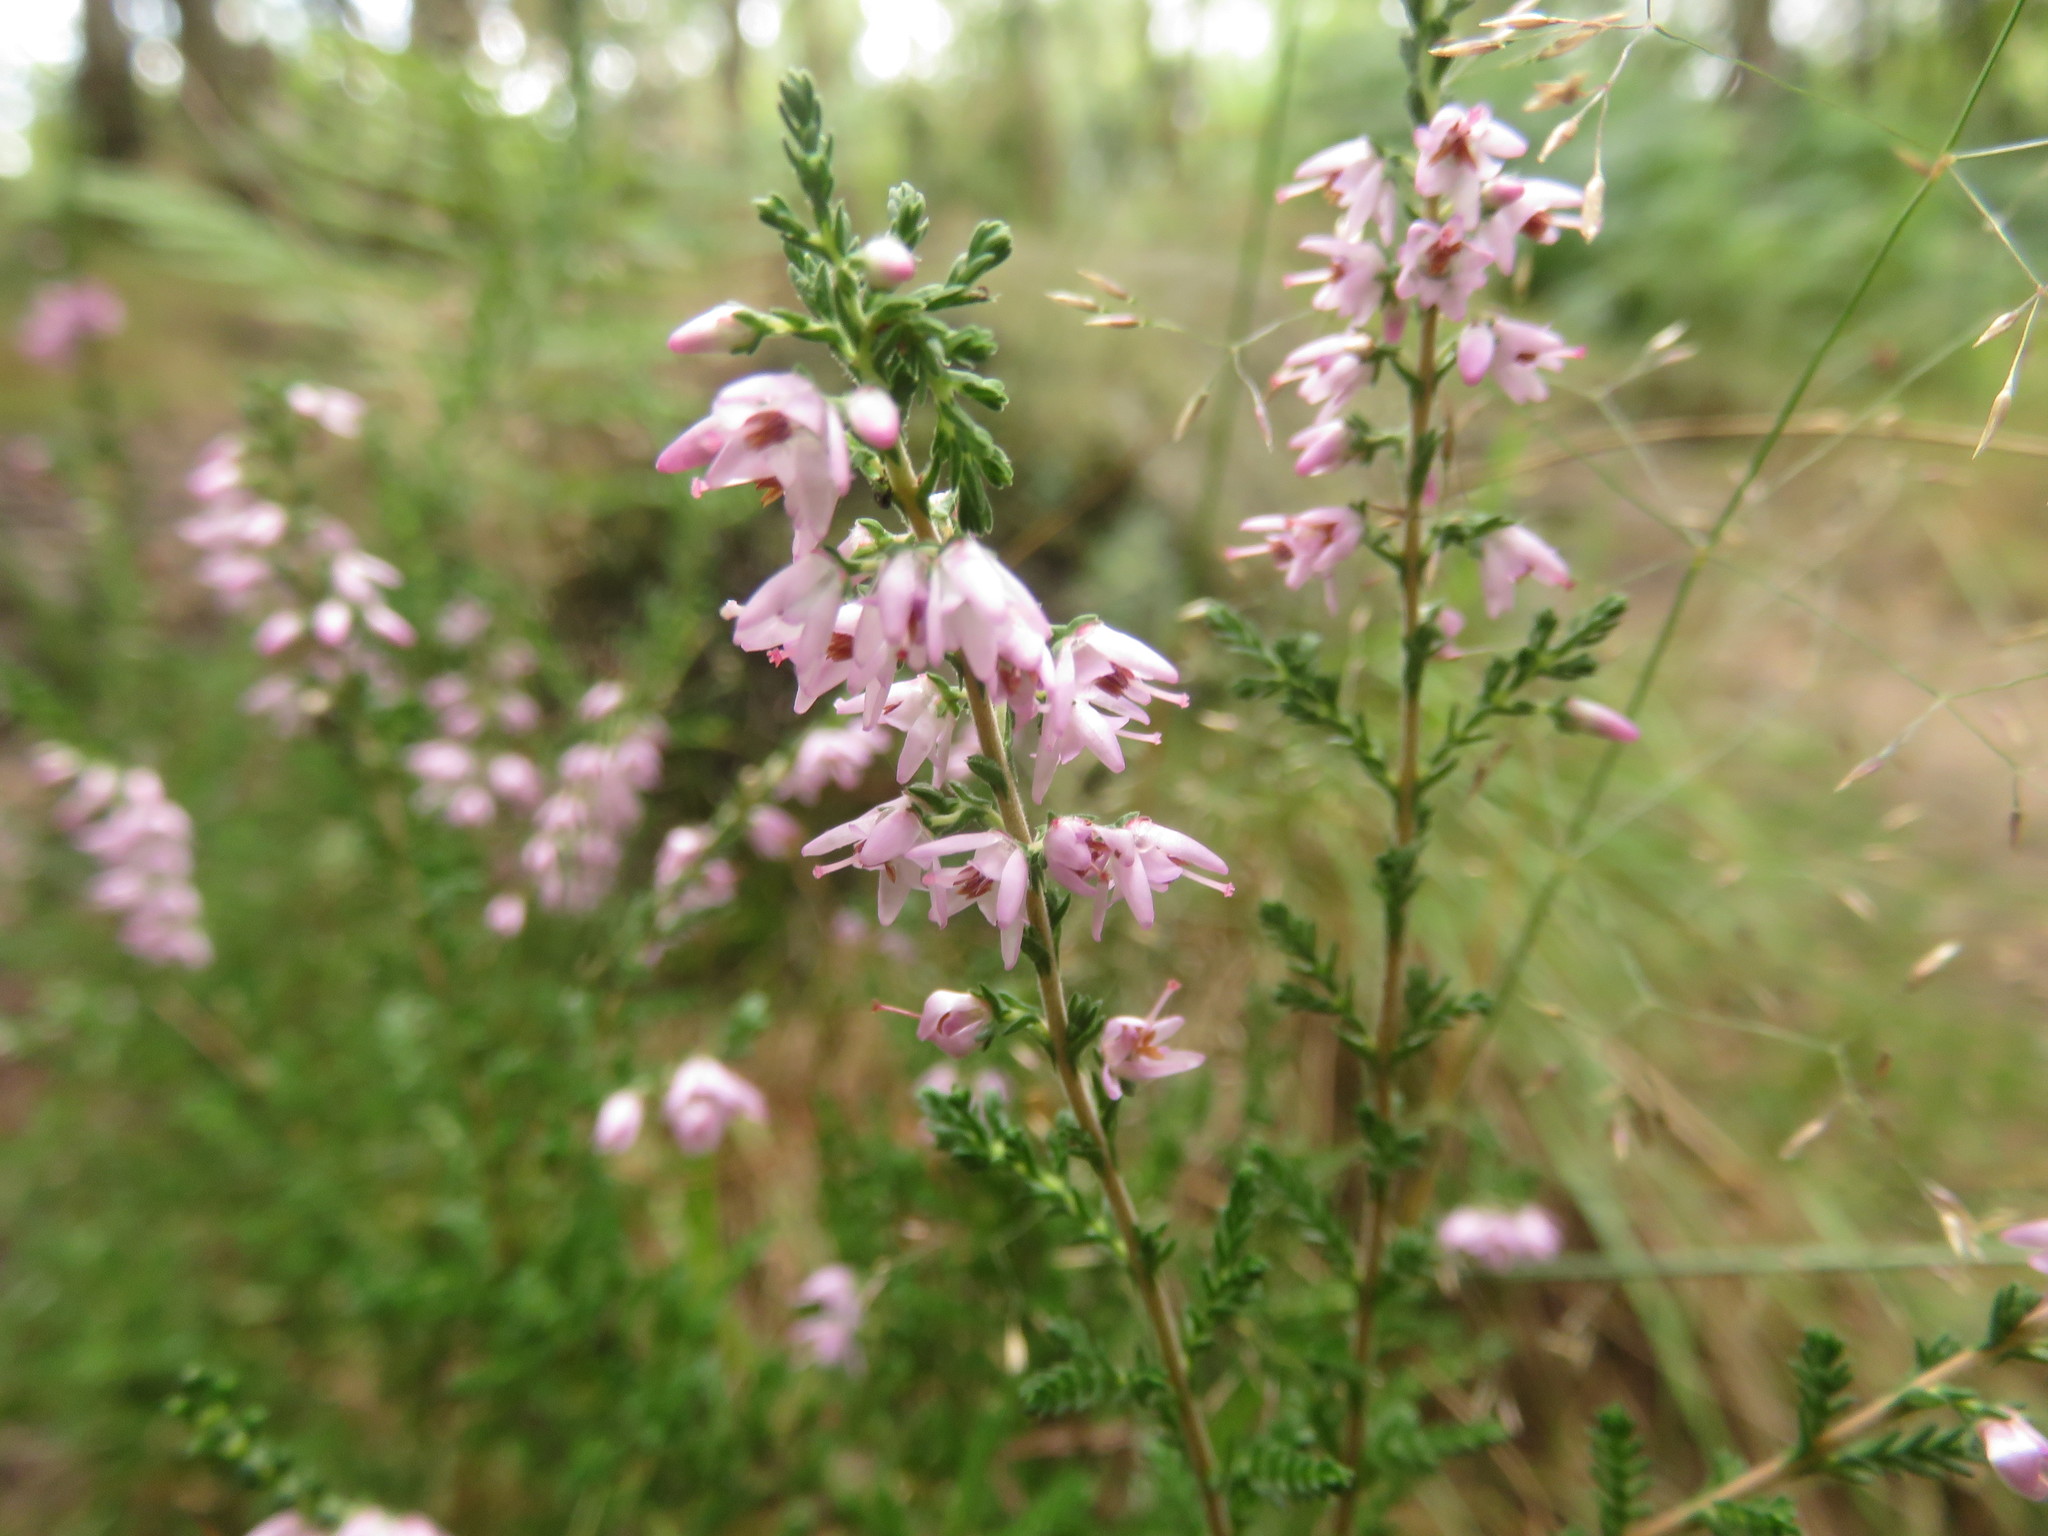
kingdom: Plantae
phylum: Tracheophyta
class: Magnoliopsida
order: Ericales
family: Ericaceae
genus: Calluna
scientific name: Calluna vulgaris
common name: Heather
